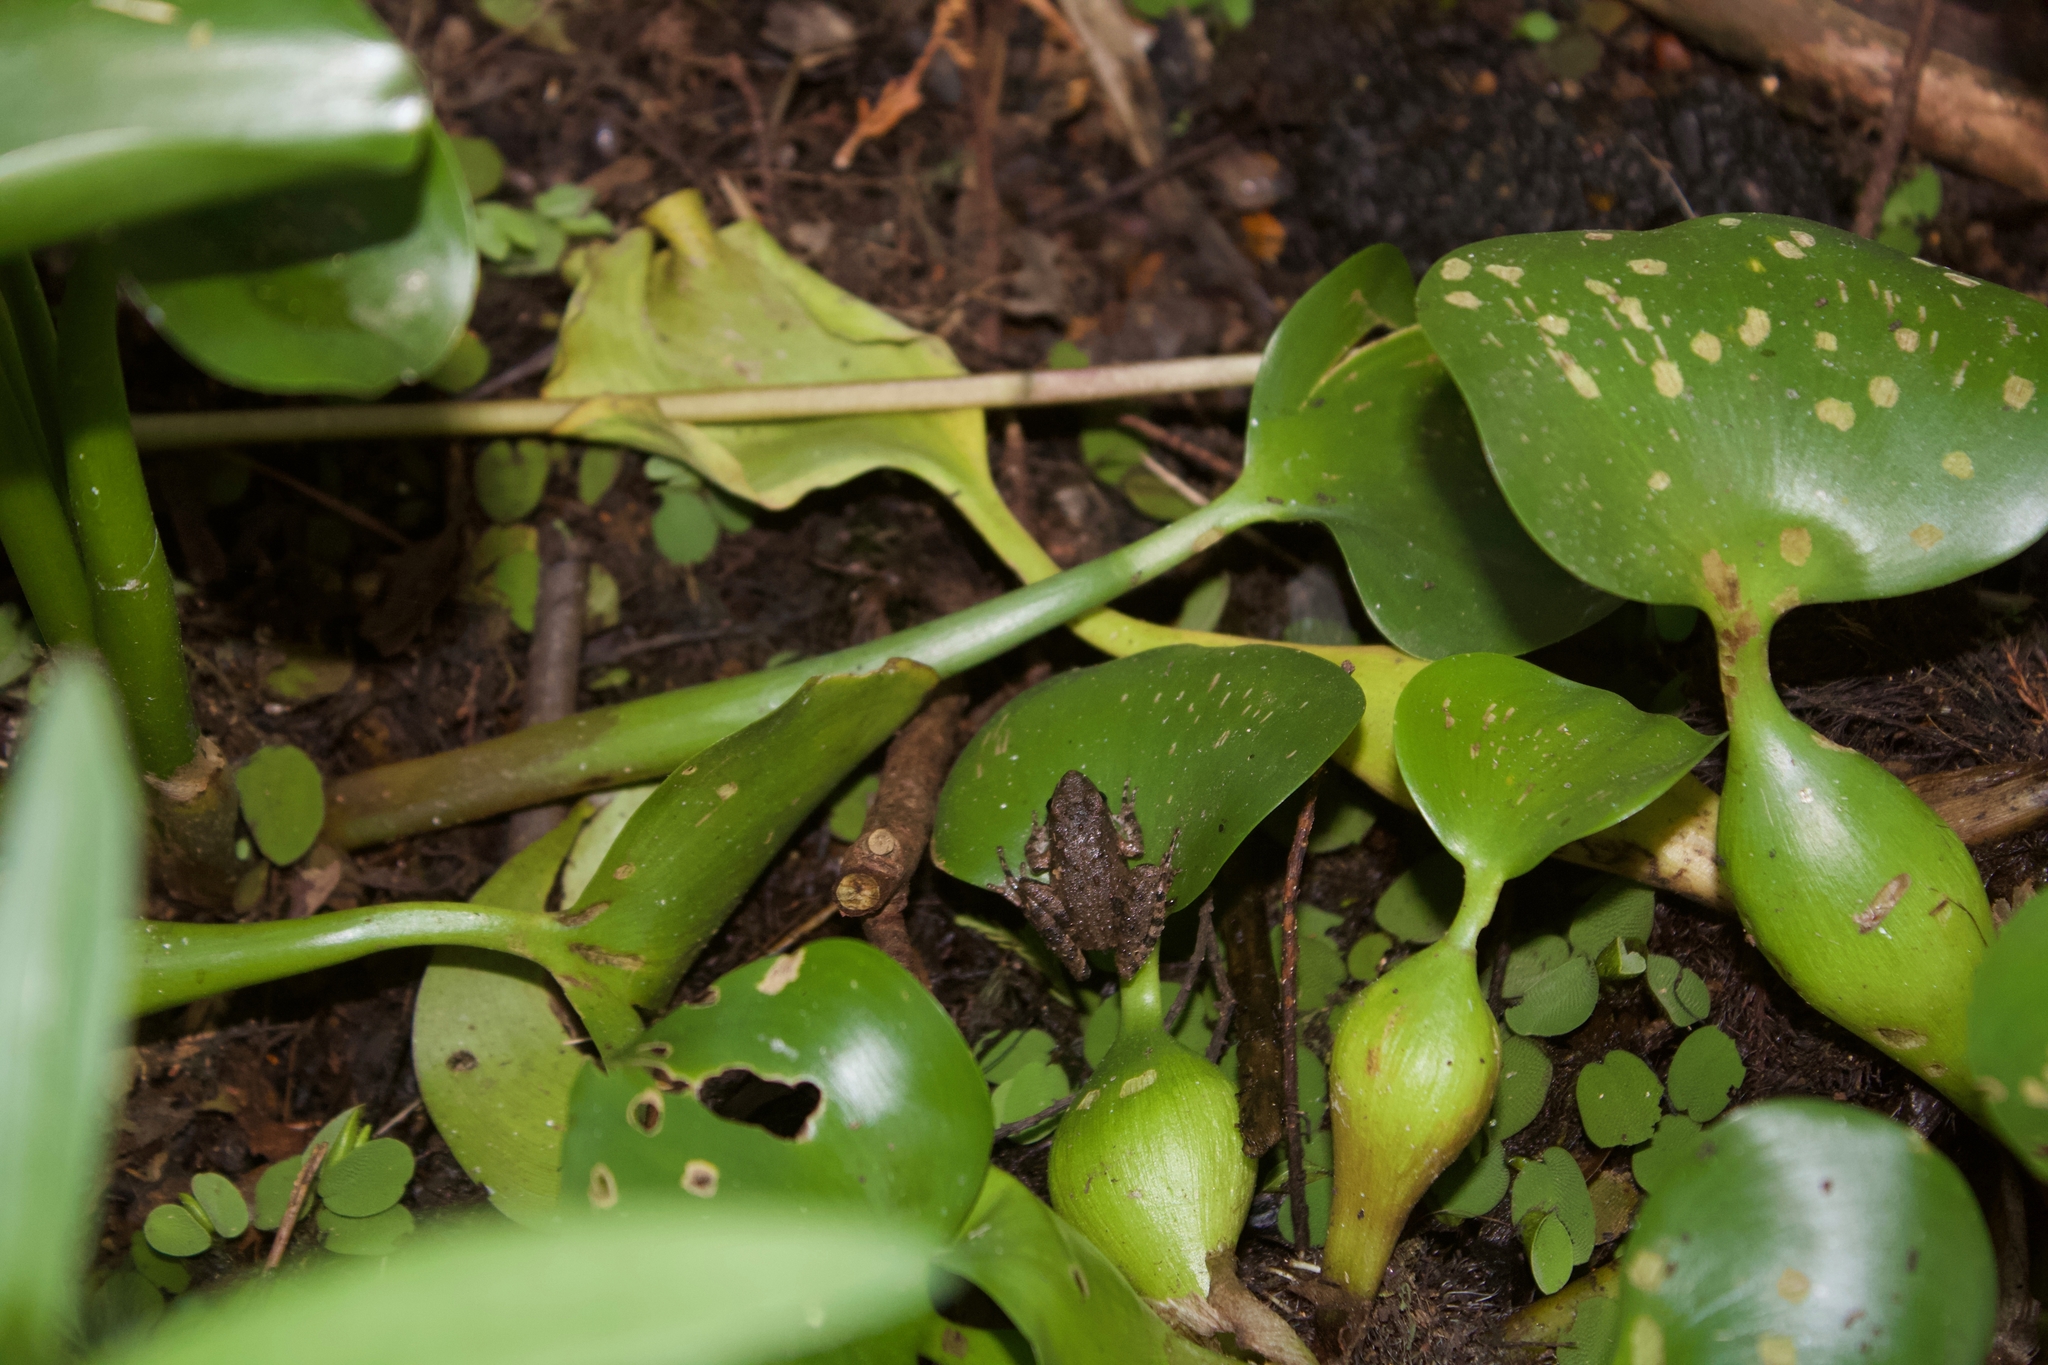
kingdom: Animalia
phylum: Chordata
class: Amphibia
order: Anura
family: Hylidae
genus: Acris
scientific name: Acris blanchardi
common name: Blanchard's cricket frog
